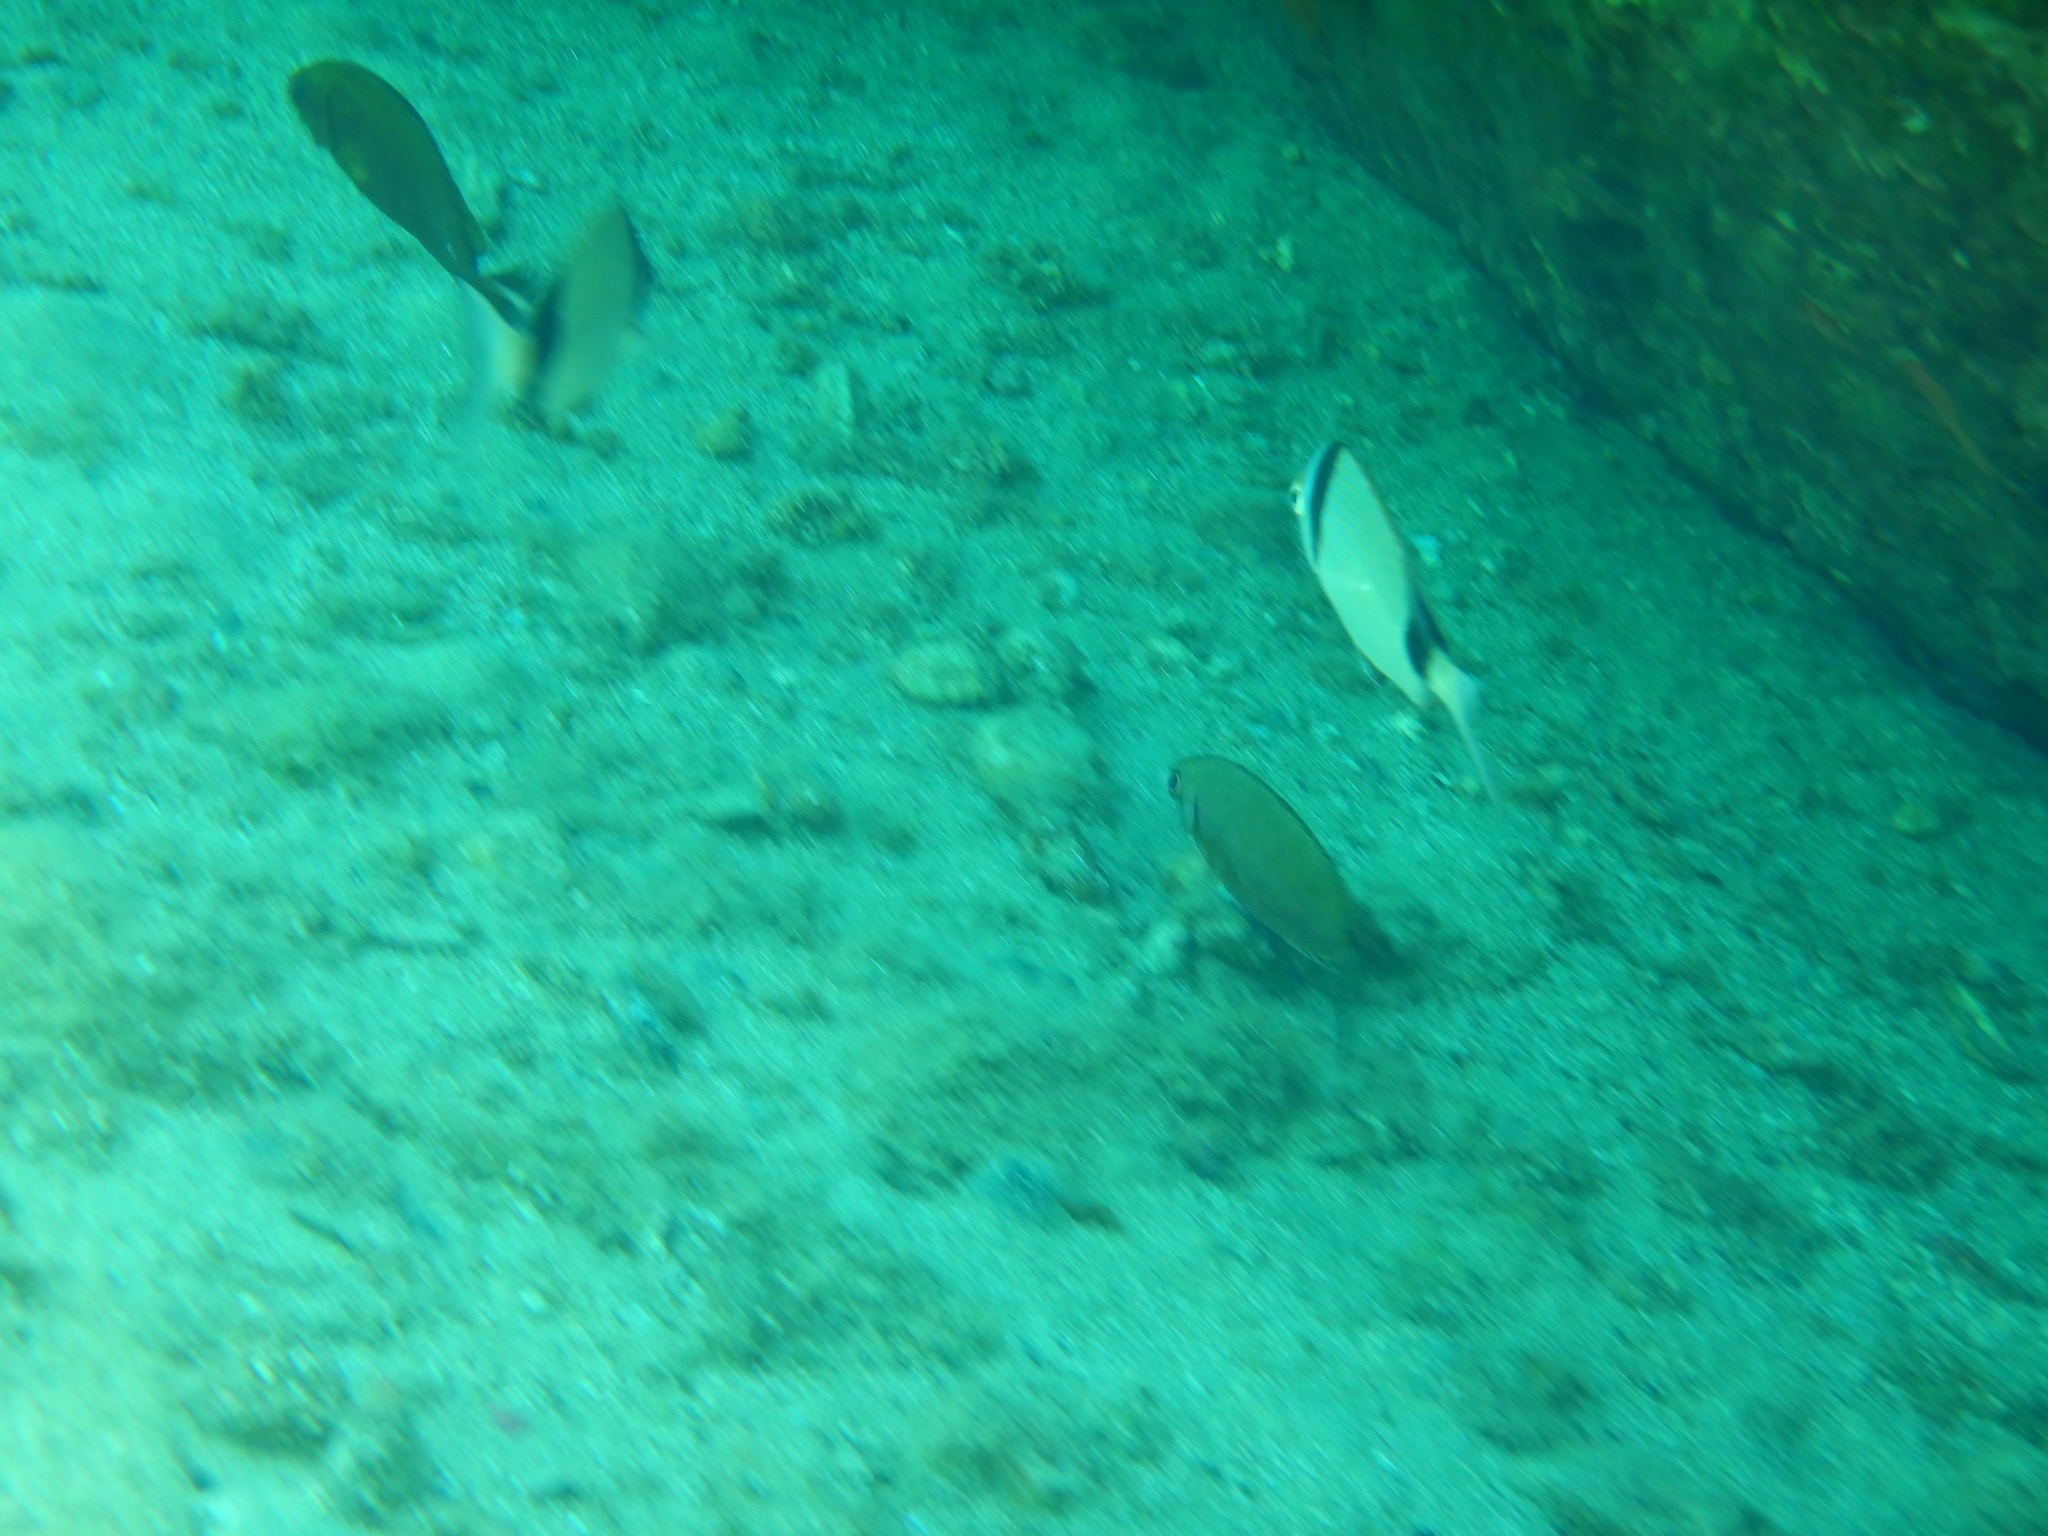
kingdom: Animalia
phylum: Chordata
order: Perciformes
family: Sparidae
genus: Diplodus
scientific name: Diplodus vulgaris
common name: Common two-banded seabream
